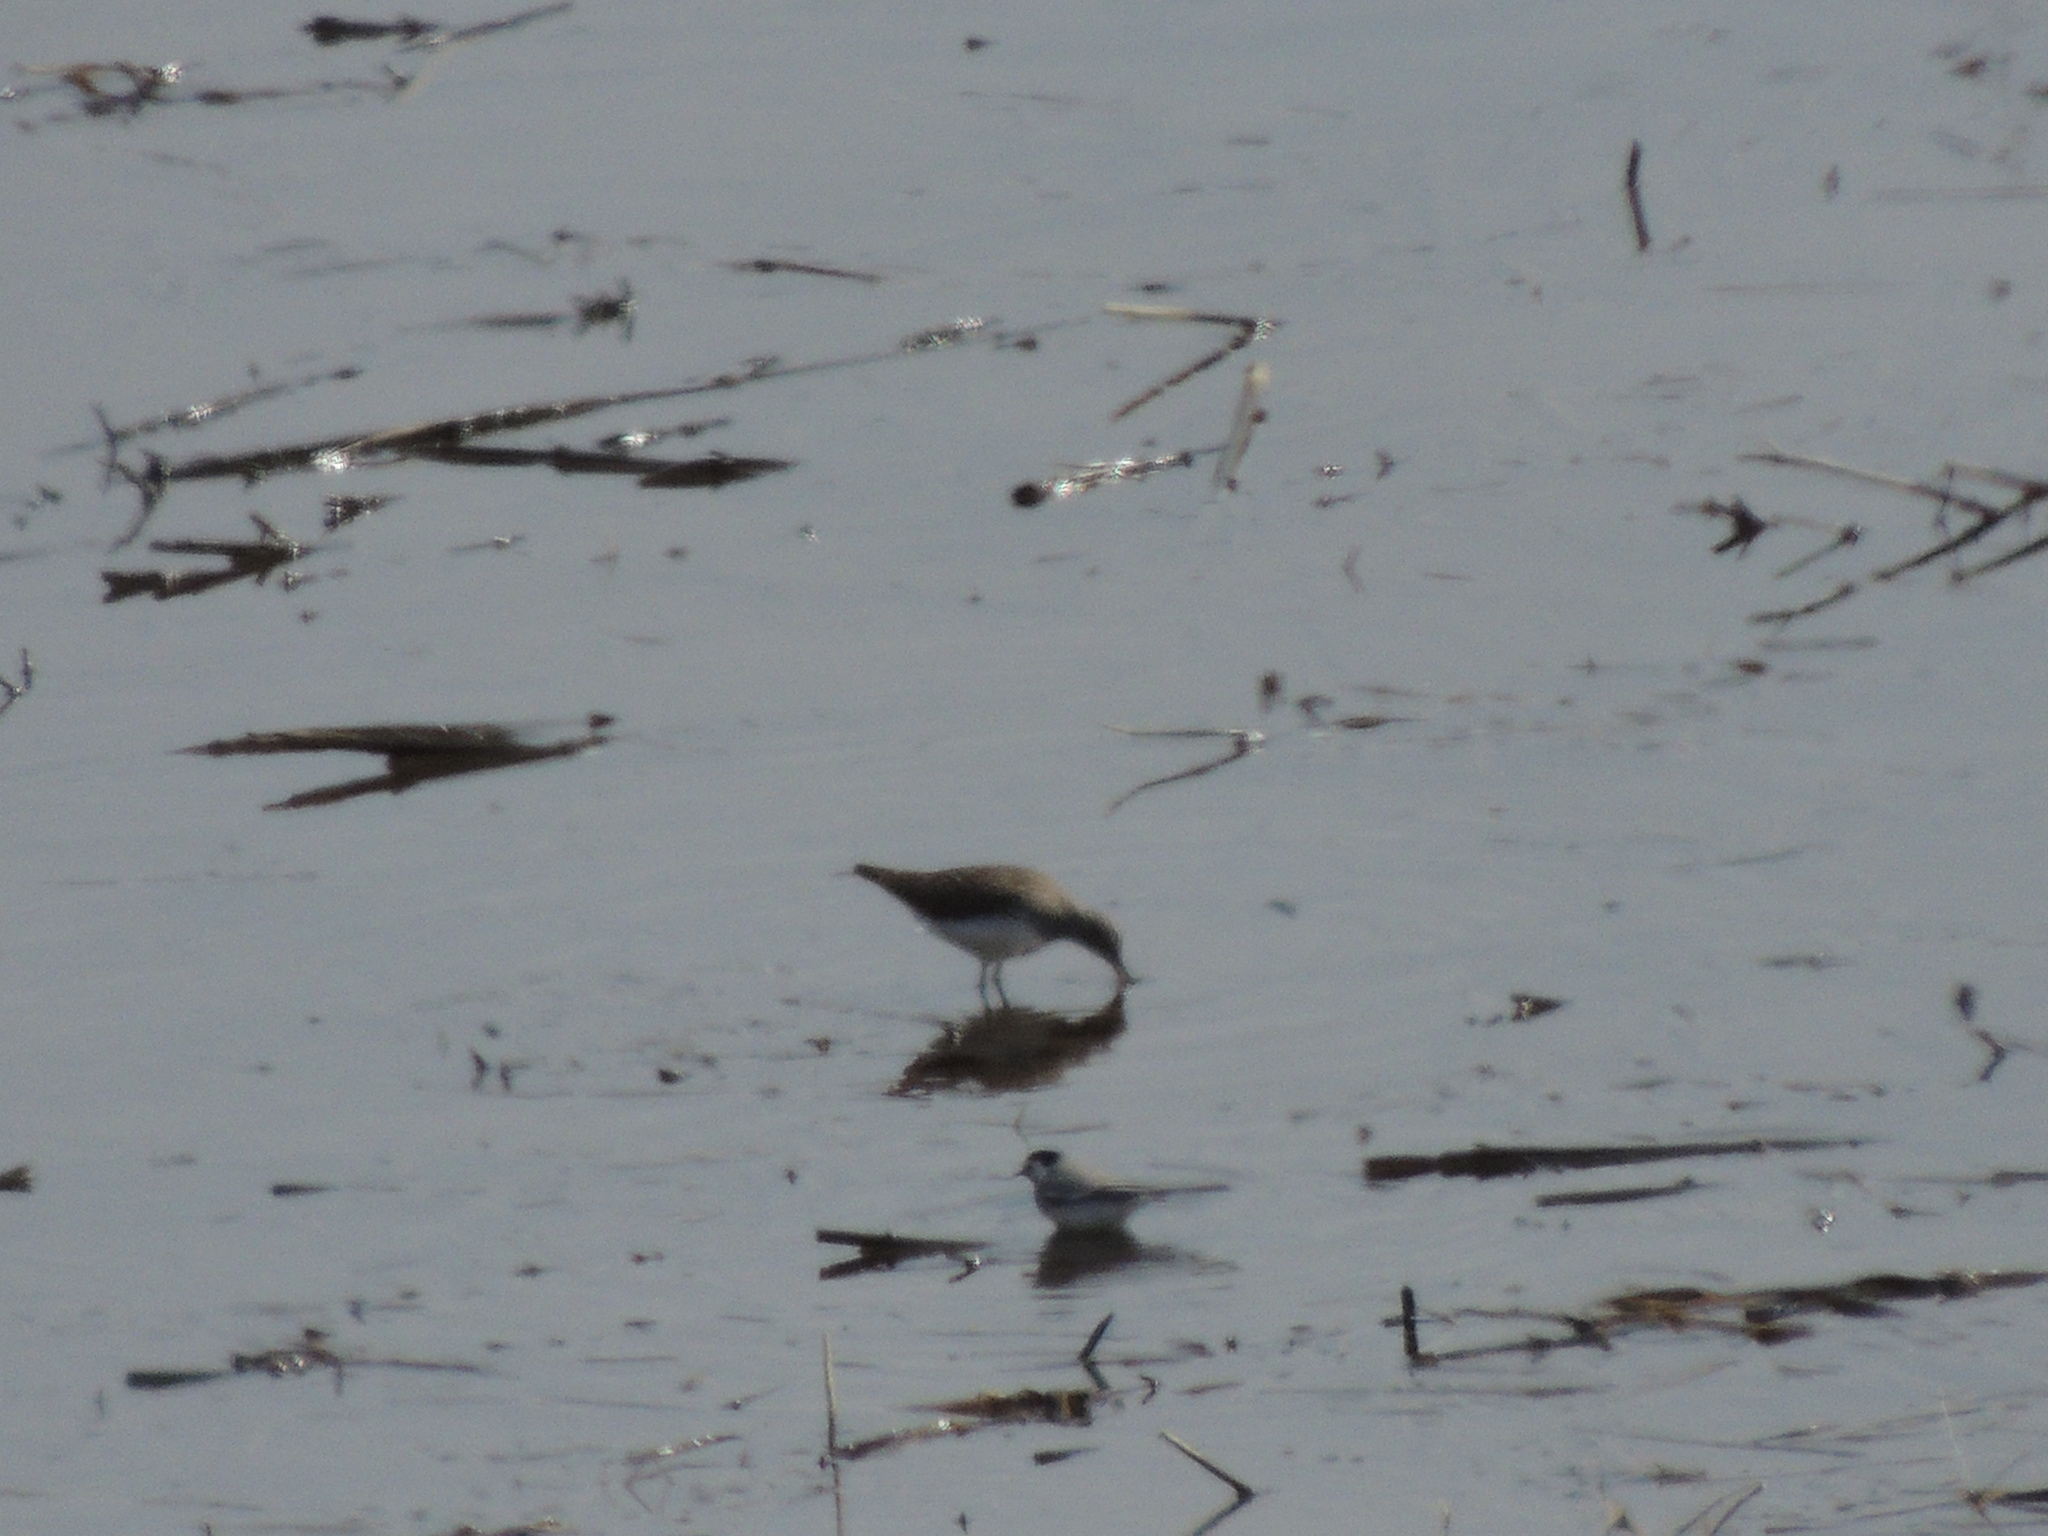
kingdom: Animalia
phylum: Chordata
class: Aves
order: Passeriformes
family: Motacillidae
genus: Motacilla
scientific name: Motacilla alba
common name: White wagtail
